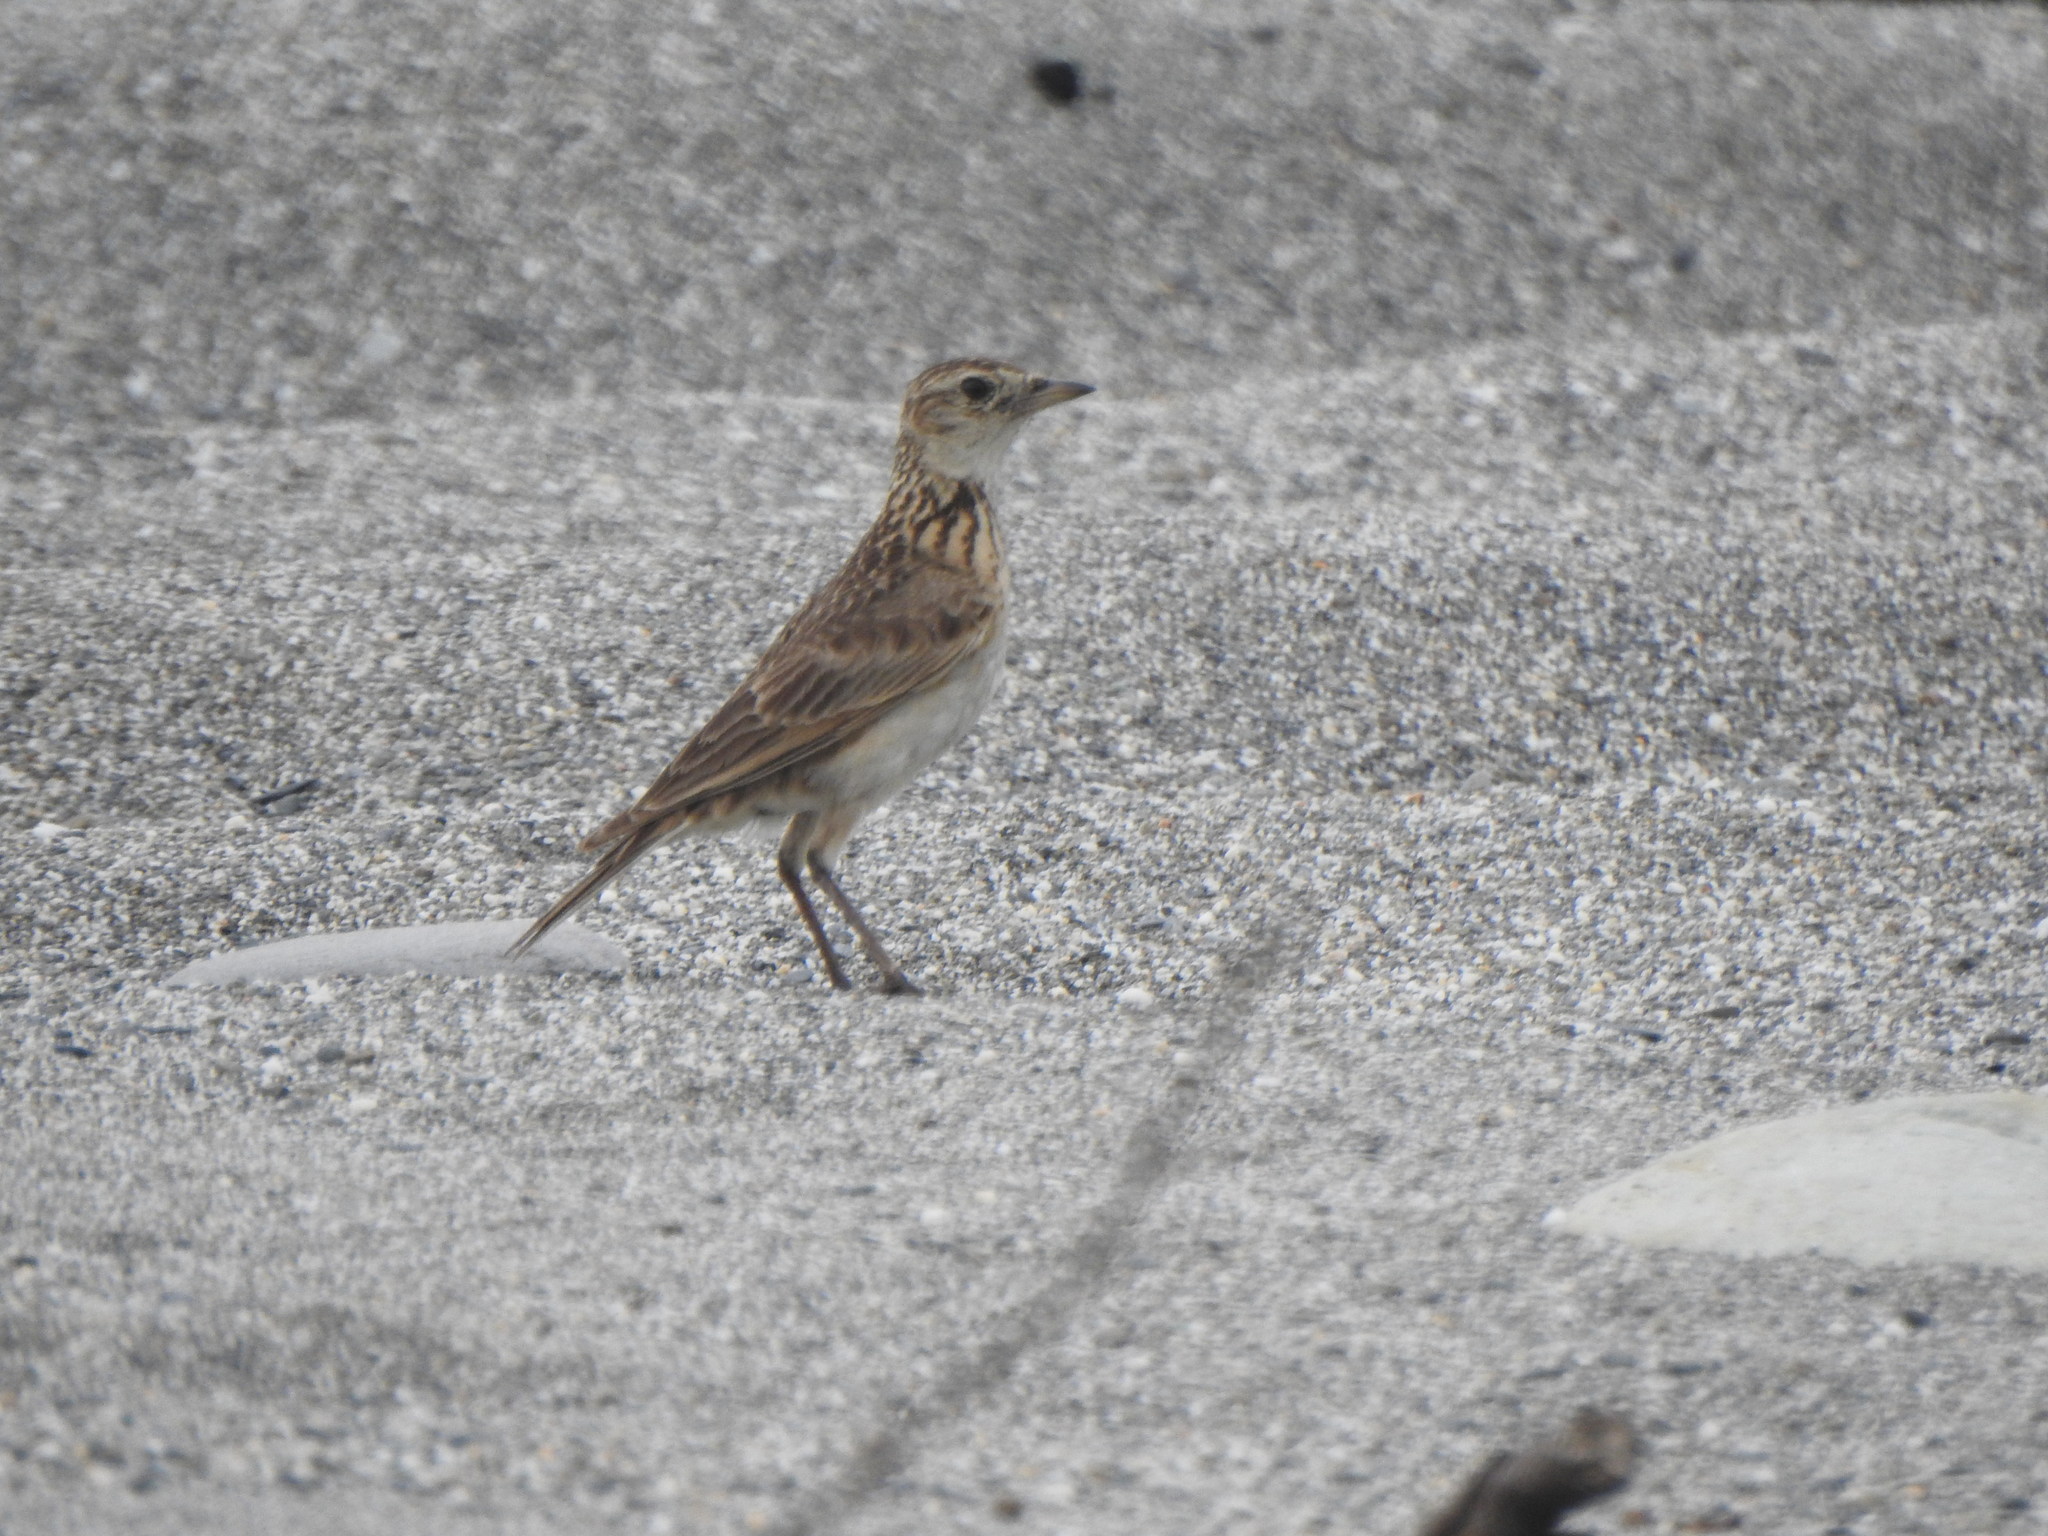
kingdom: Animalia
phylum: Chordata
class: Aves
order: Passeriformes
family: Alaudidae
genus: Alauda
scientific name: Alauda gulgula
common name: Oriental skylark
